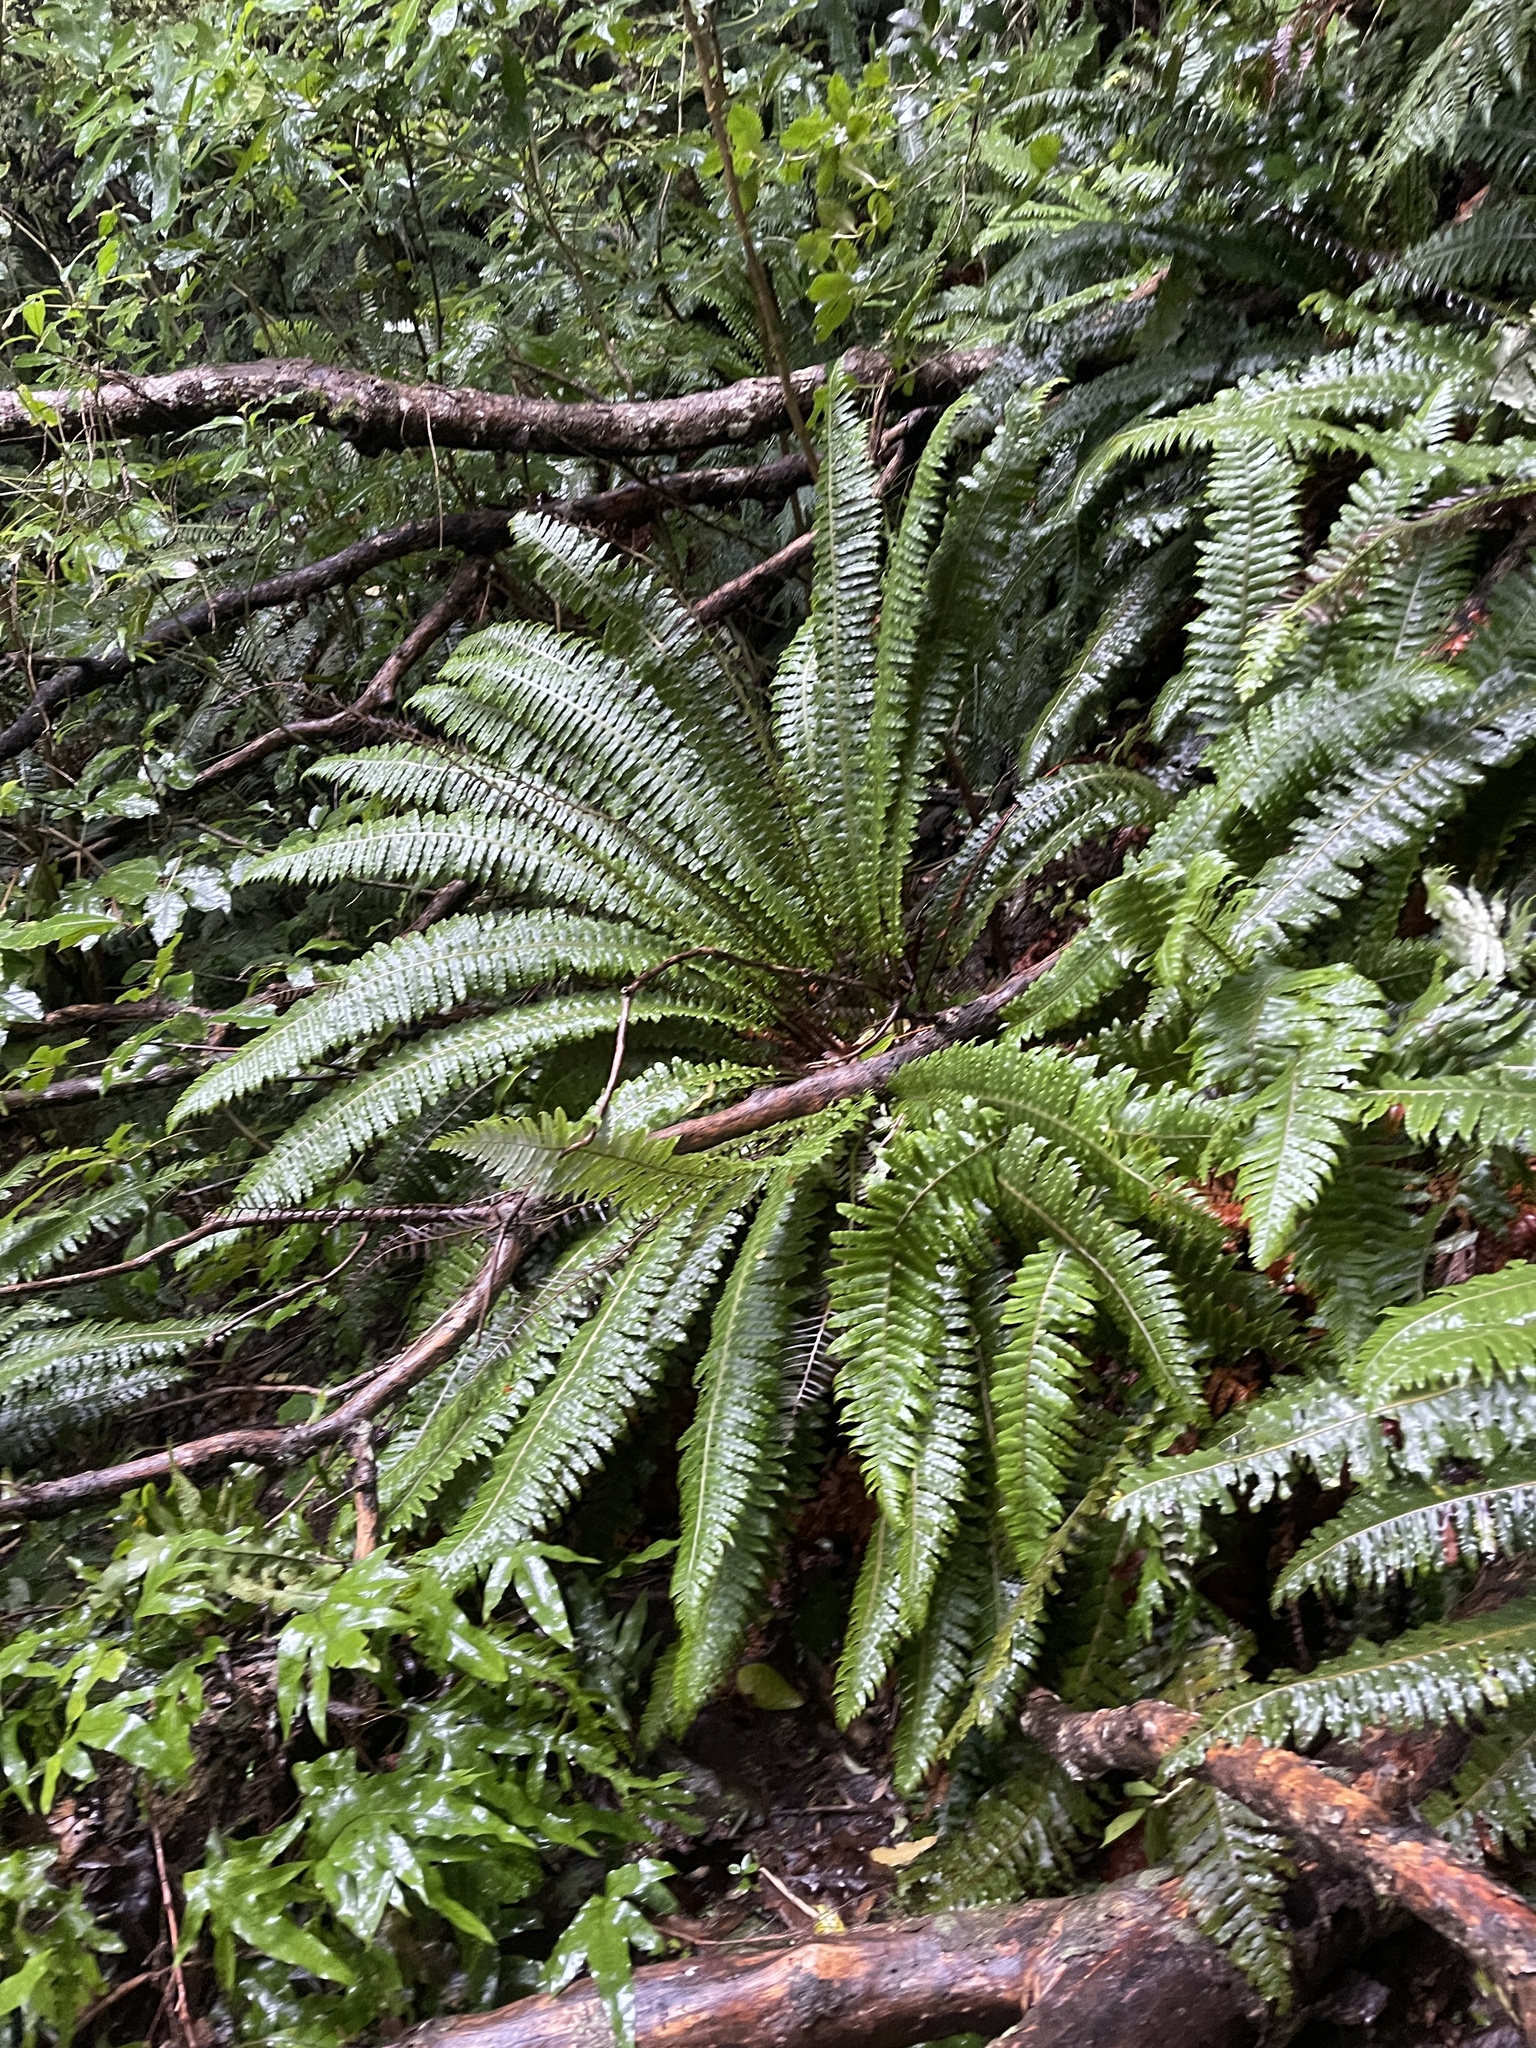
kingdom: Plantae
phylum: Tracheophyta
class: Polypodiopsida
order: Polypodiales
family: Blechnaceae
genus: Lomaria
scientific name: Lomaria discolor
